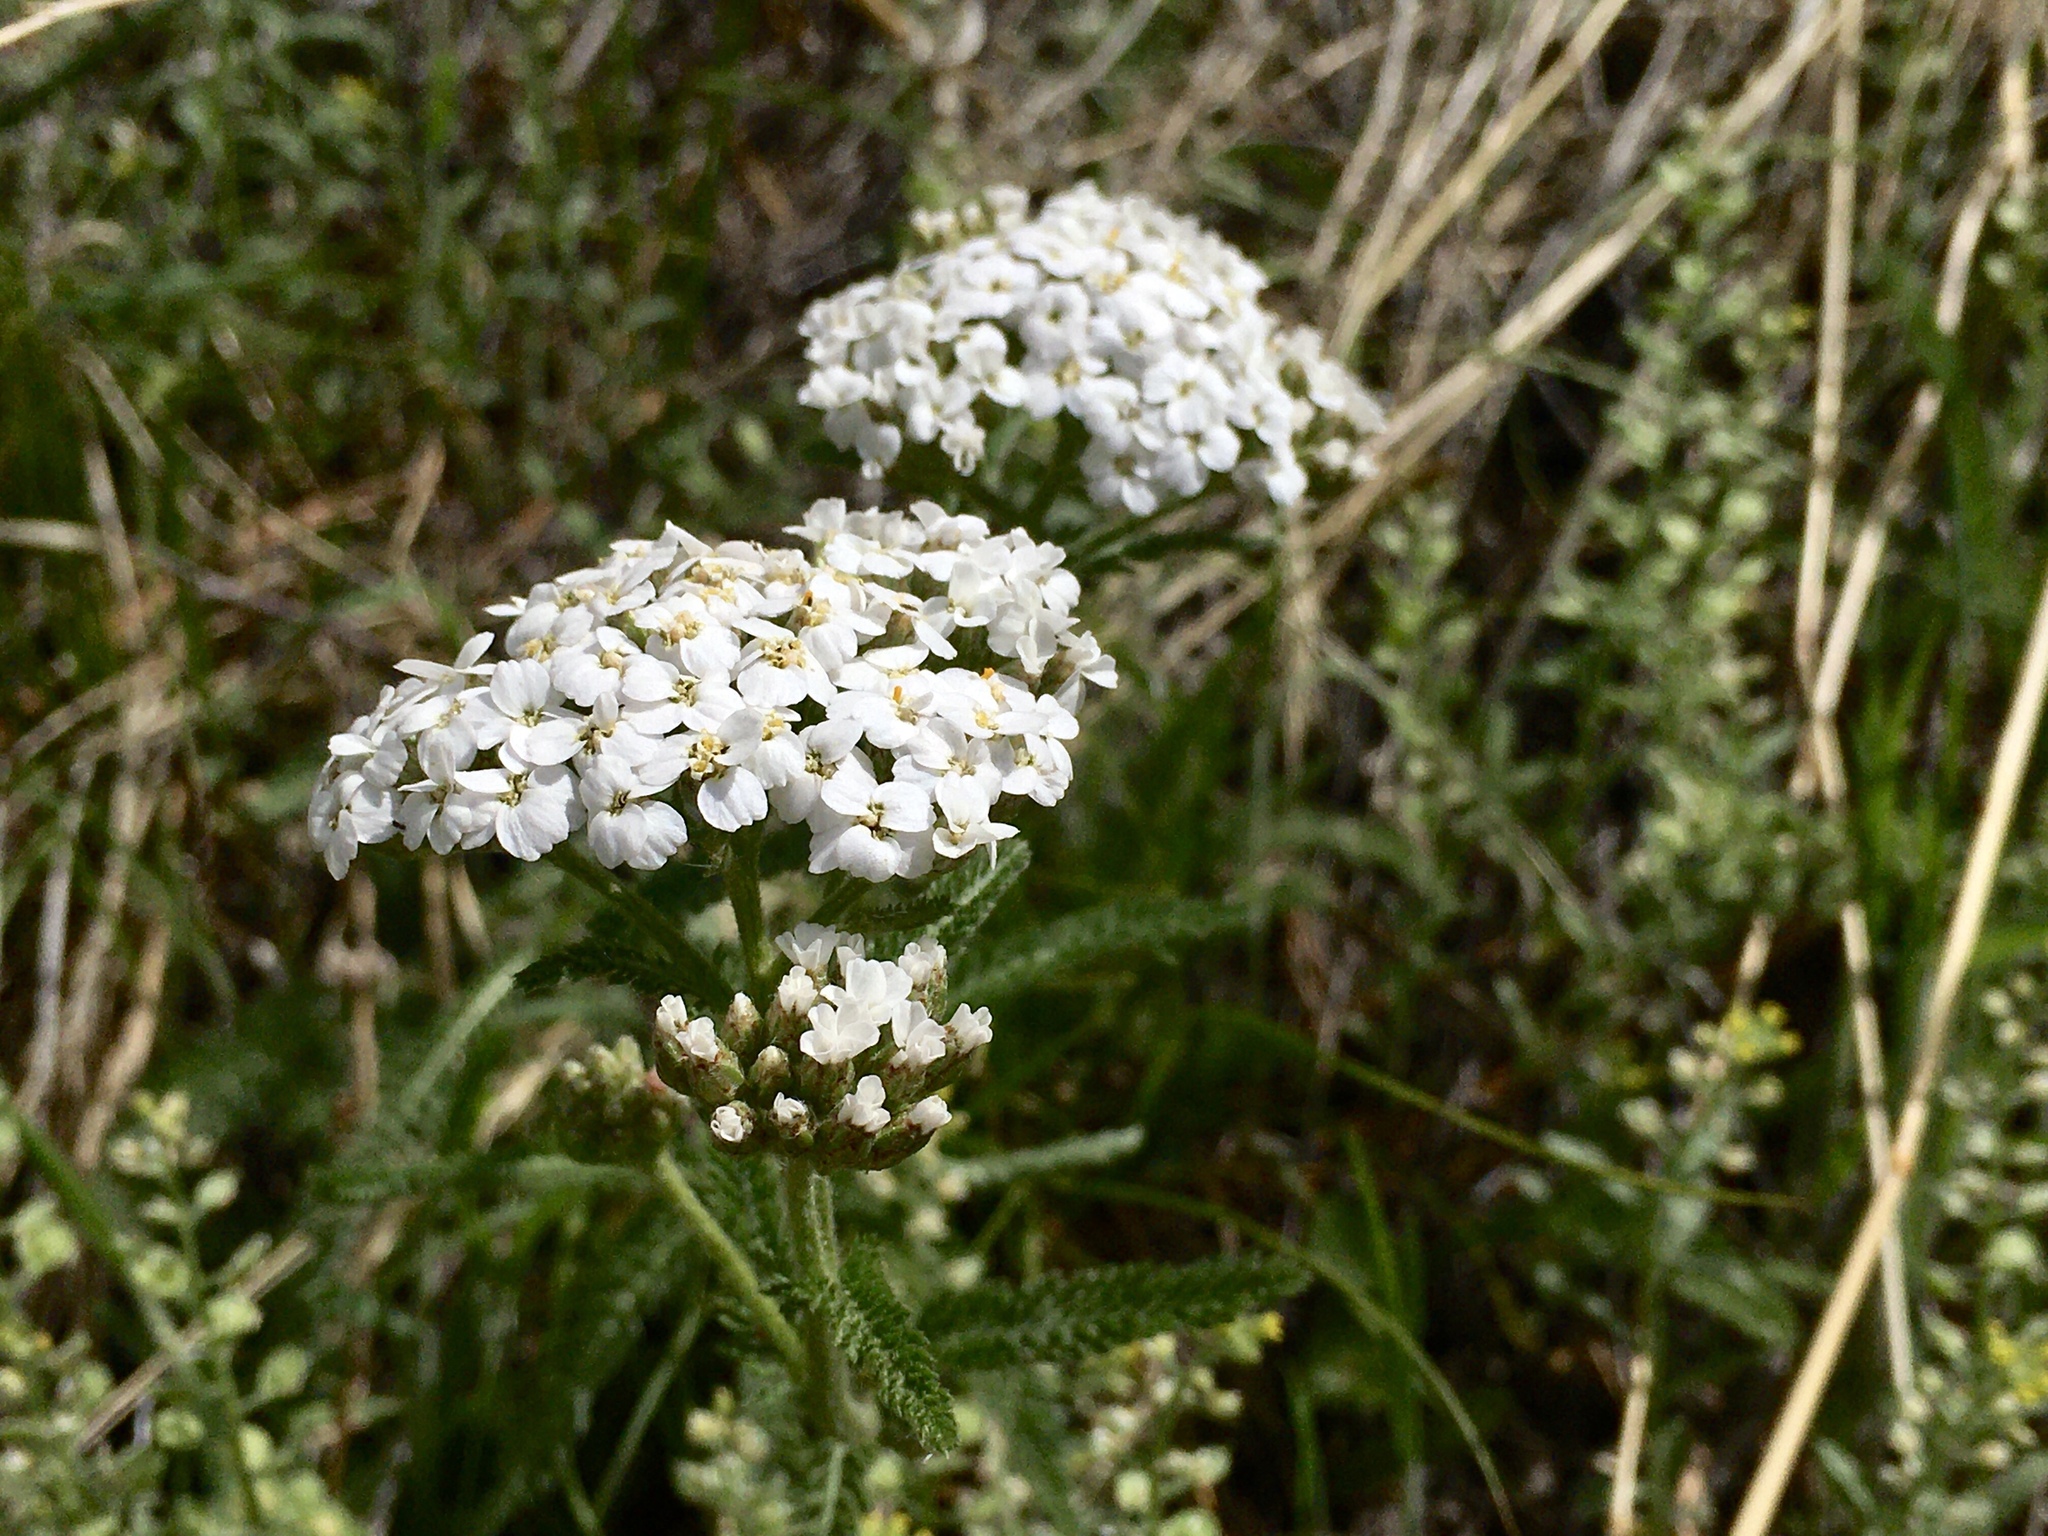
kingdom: Plantae
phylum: Tracheophyta
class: Magnoliopsida
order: Asterales
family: Asteraceae
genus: Achillea
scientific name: Achillea millefolium
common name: Yarrow
